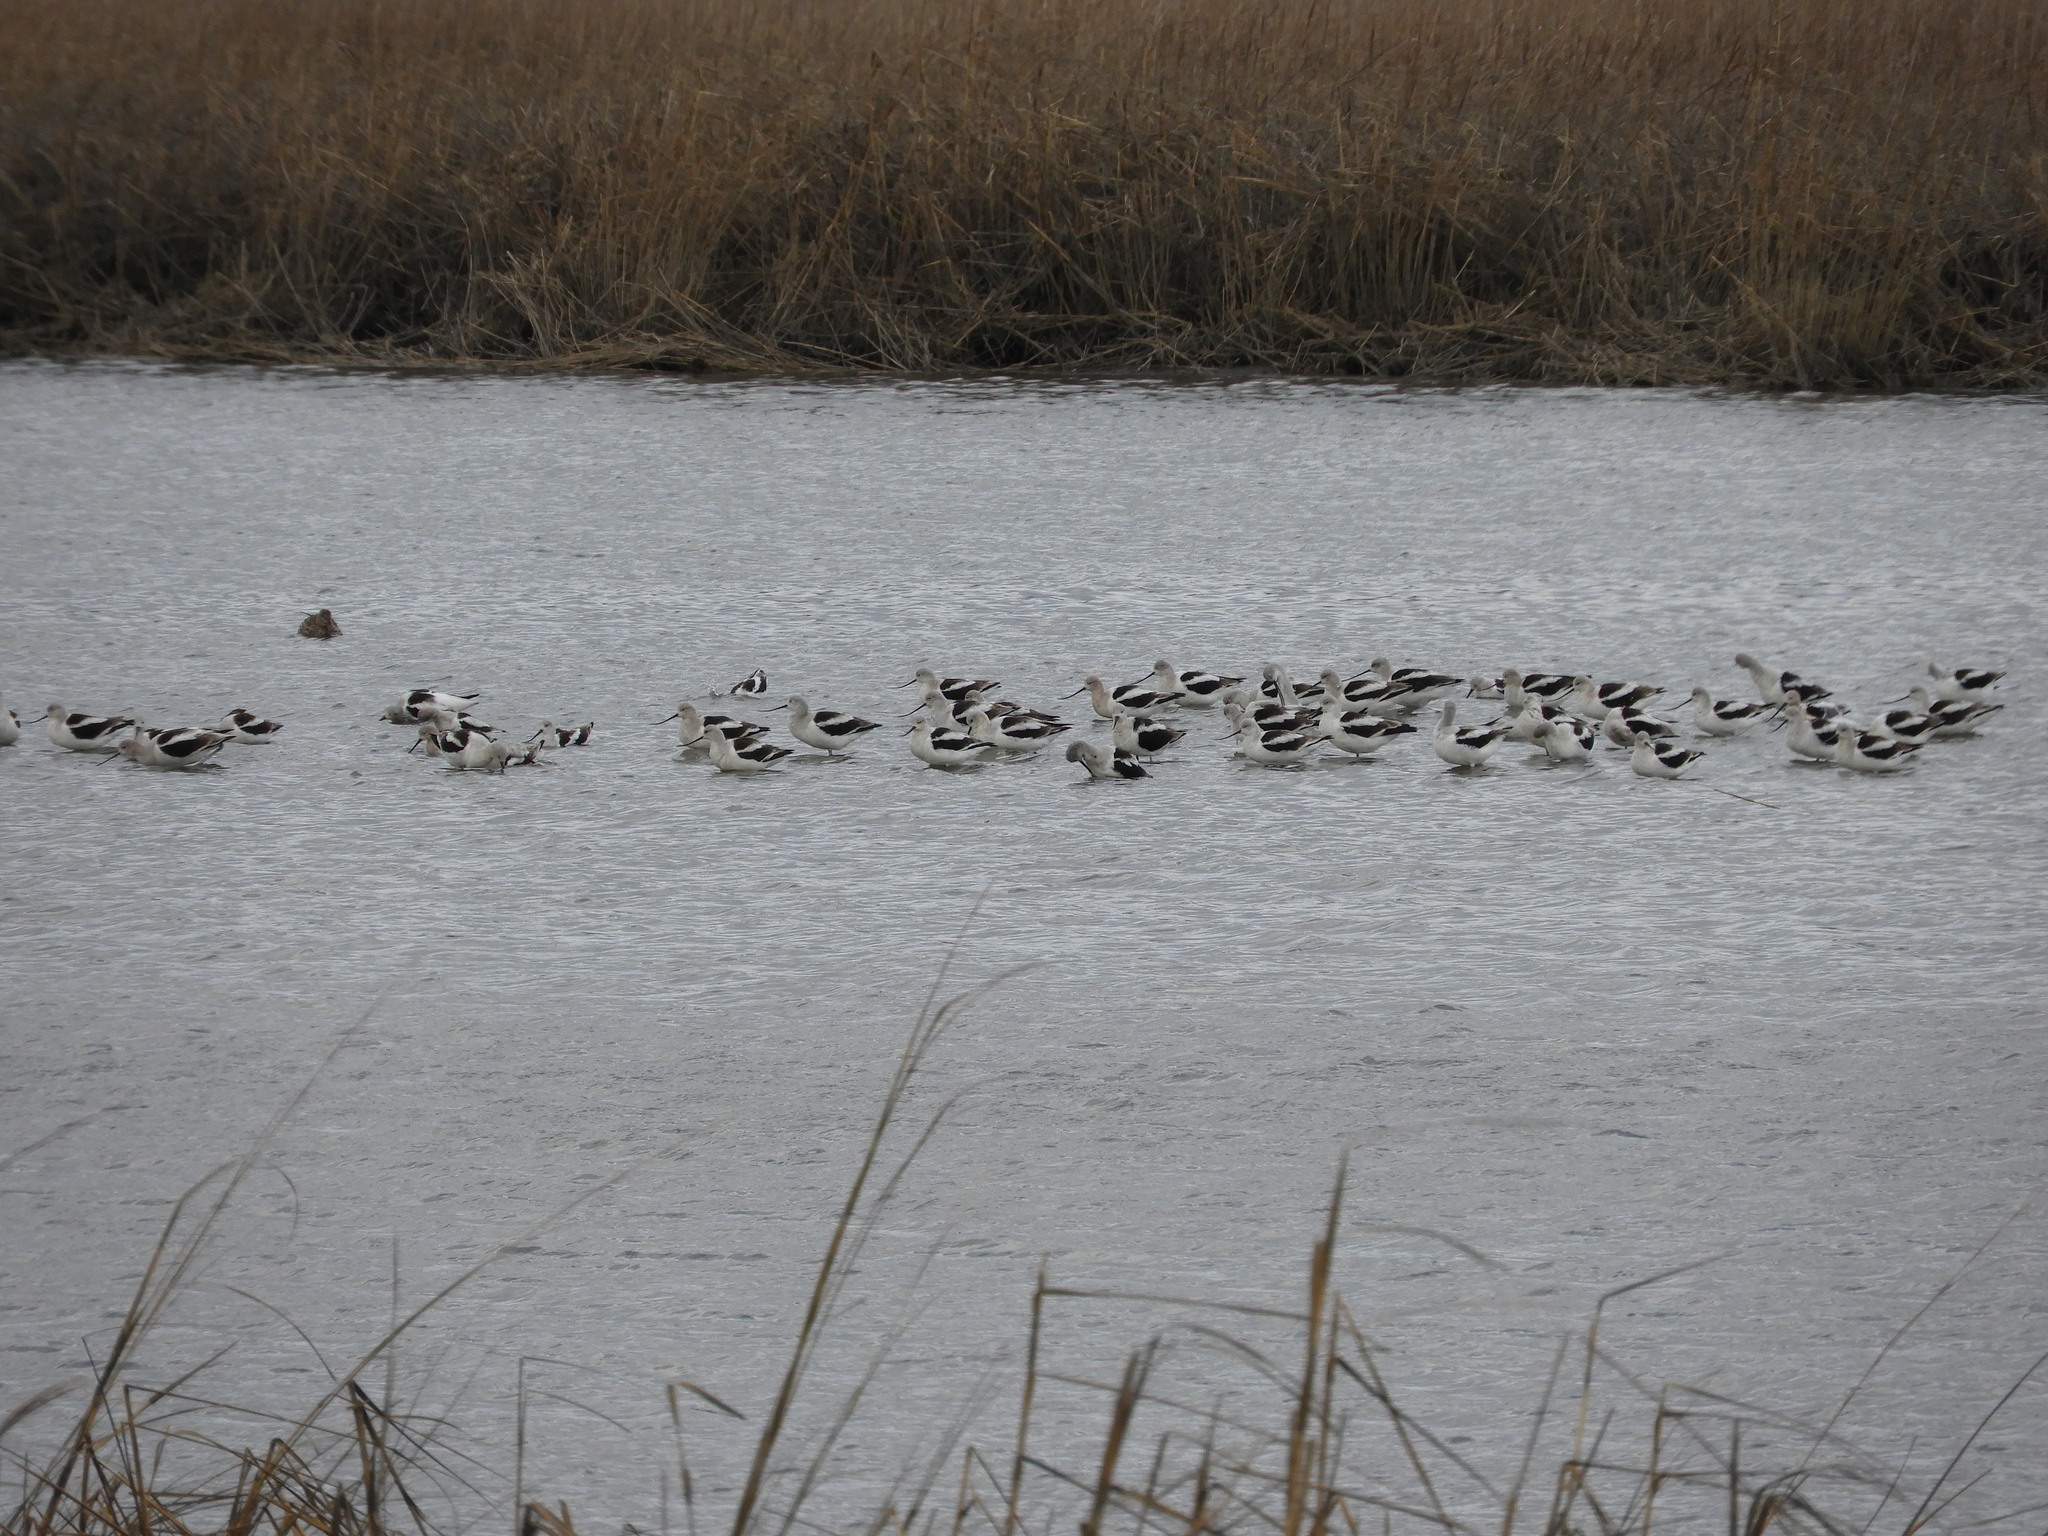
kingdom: Animalia
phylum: Chordata
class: Aves
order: Charadriiformes
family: Recurvirostridae
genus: Recurvirostra
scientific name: Recurvirostra americana
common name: American avocet
